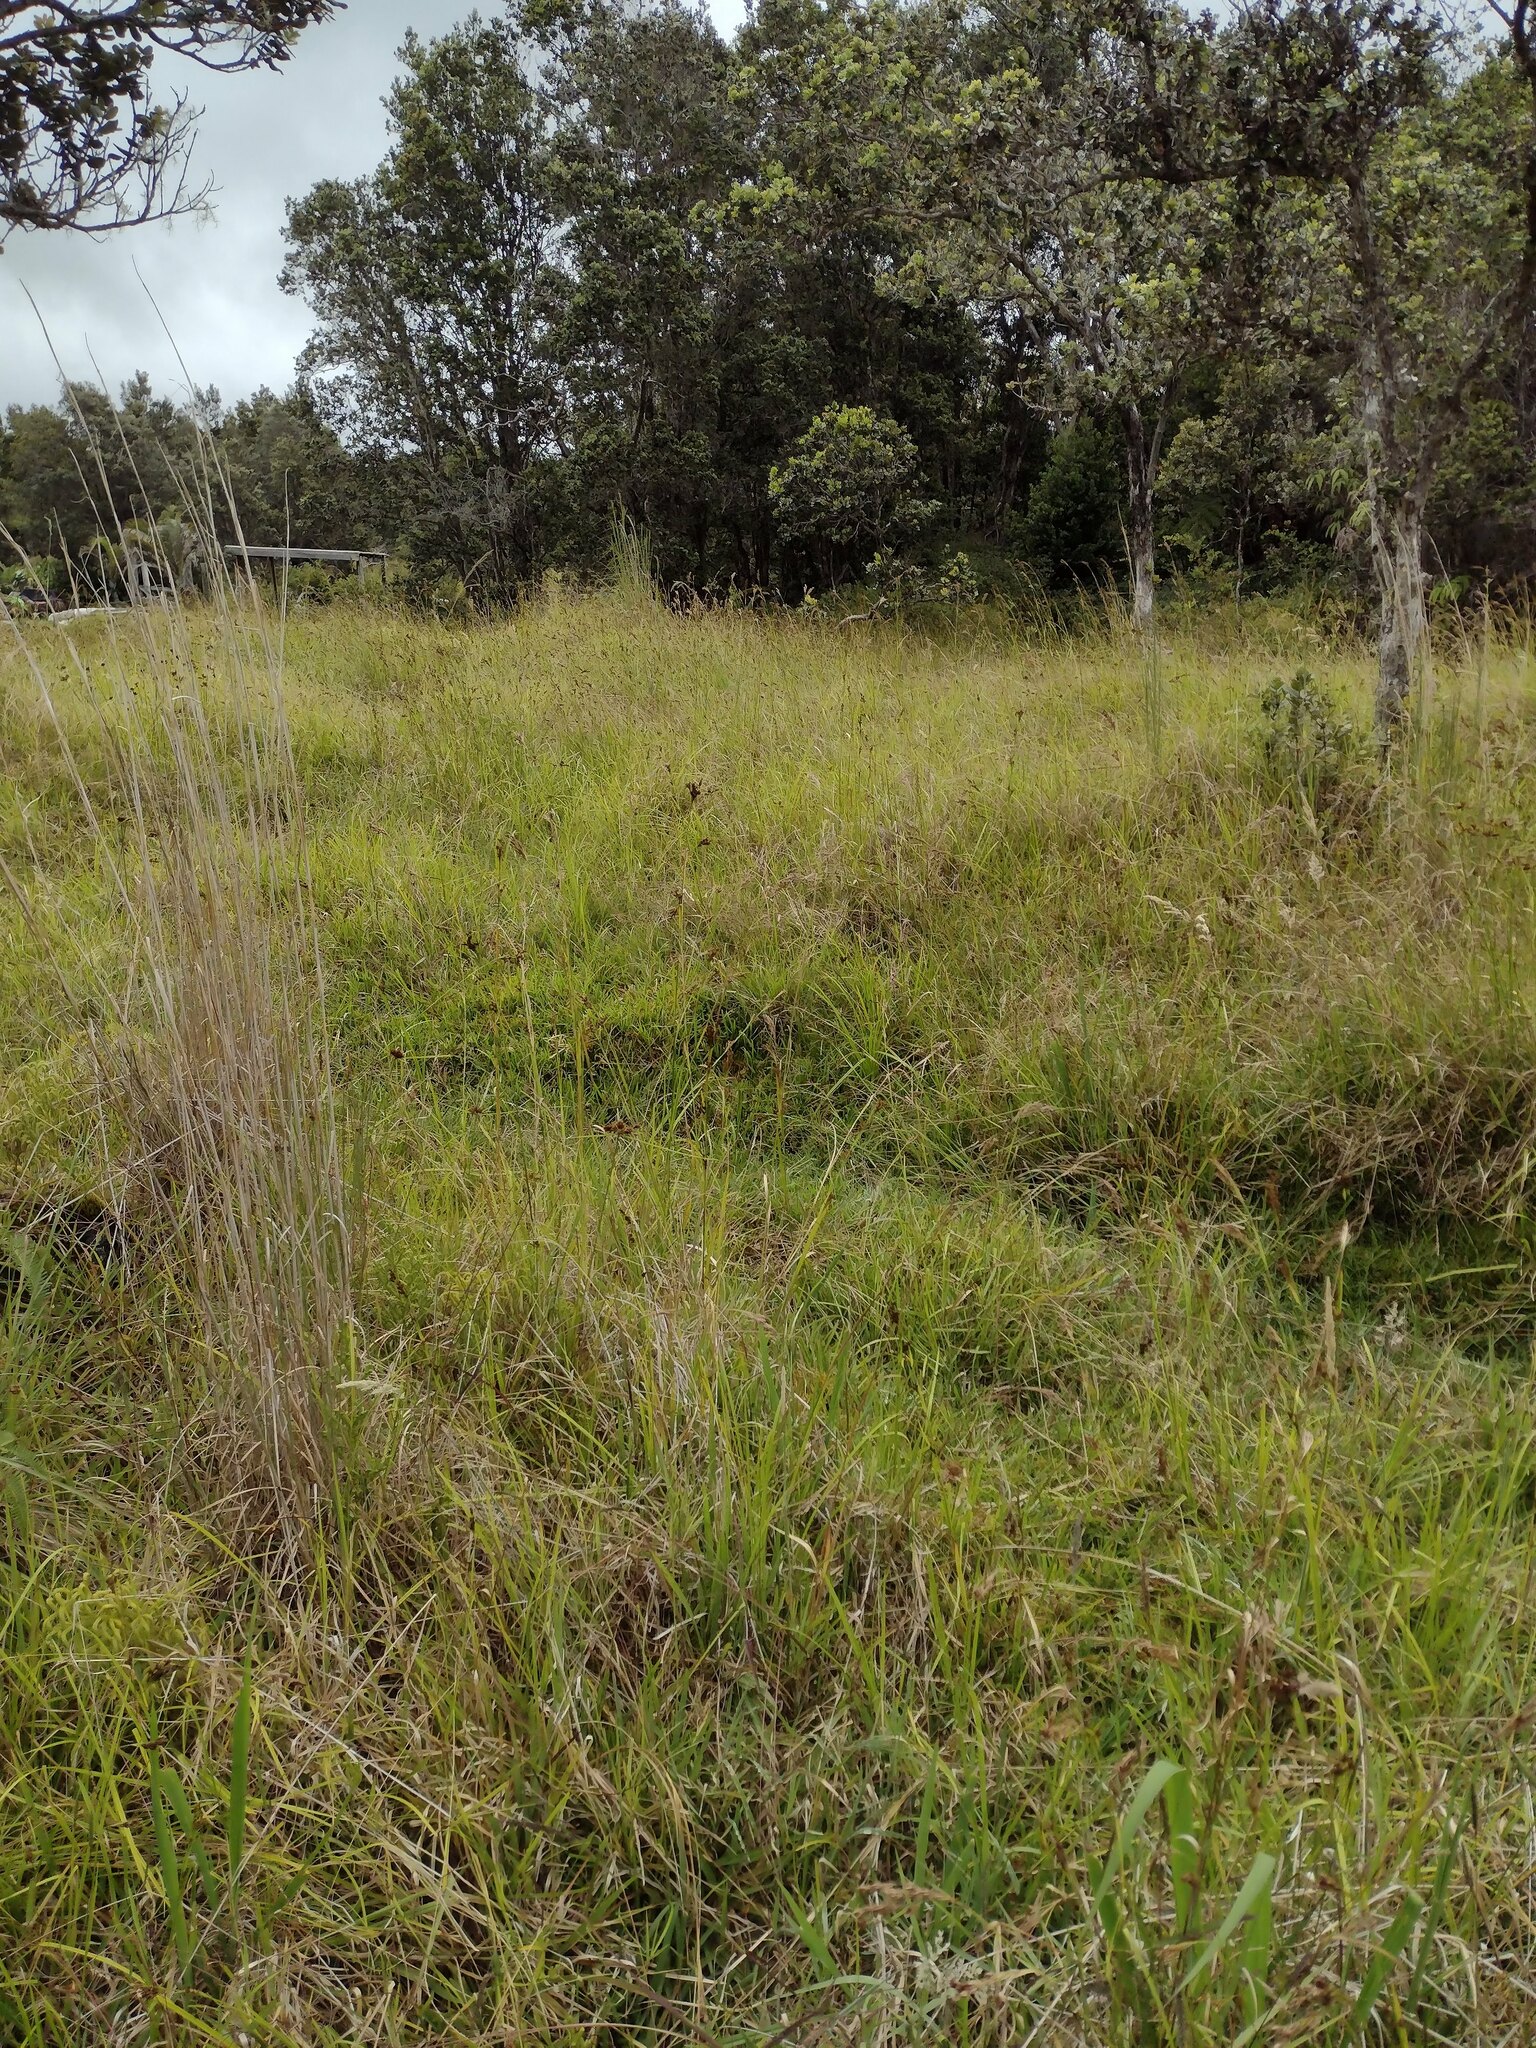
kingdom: Plantae
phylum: Tracheophyta
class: Liliopsida
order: Poales
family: Poaceae
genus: Andropogon
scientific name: Andropogon virginicus
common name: Broomsedge bluestem
